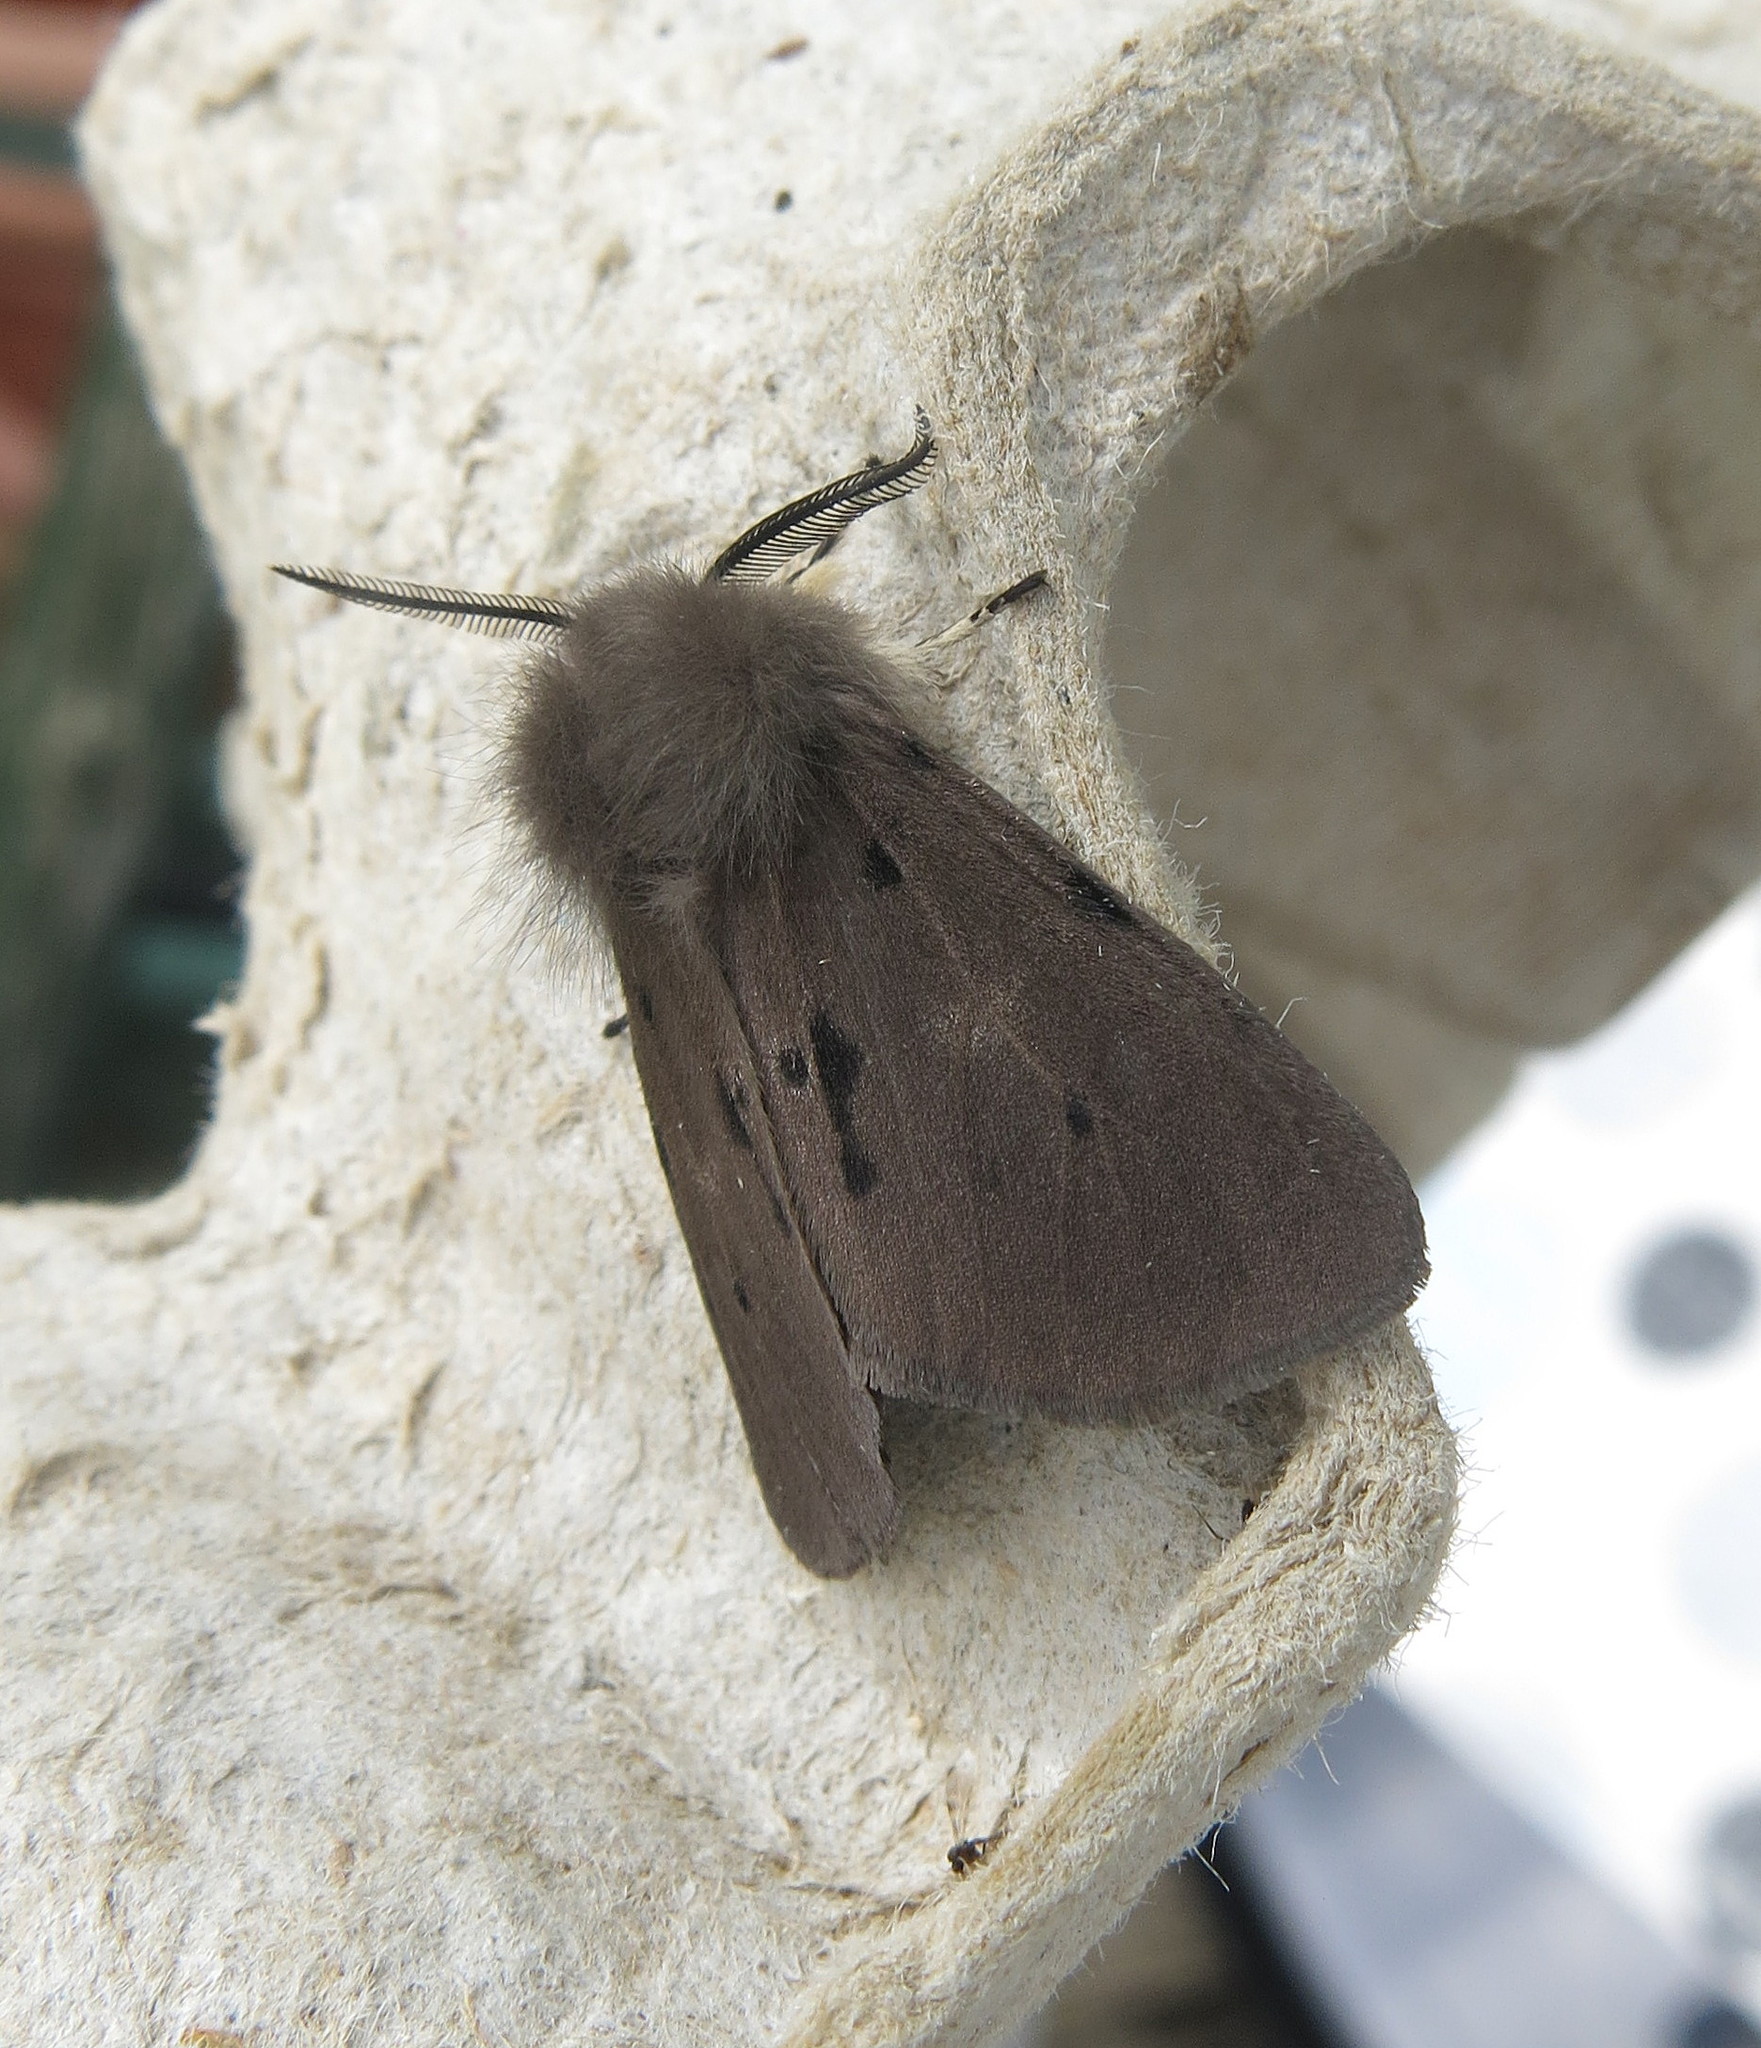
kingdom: Animalia
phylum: Arthropoda
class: Insecta
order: Lepidoptera
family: Erebidae
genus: Diaphora
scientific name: Diaphora mendica
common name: Muslin moth
